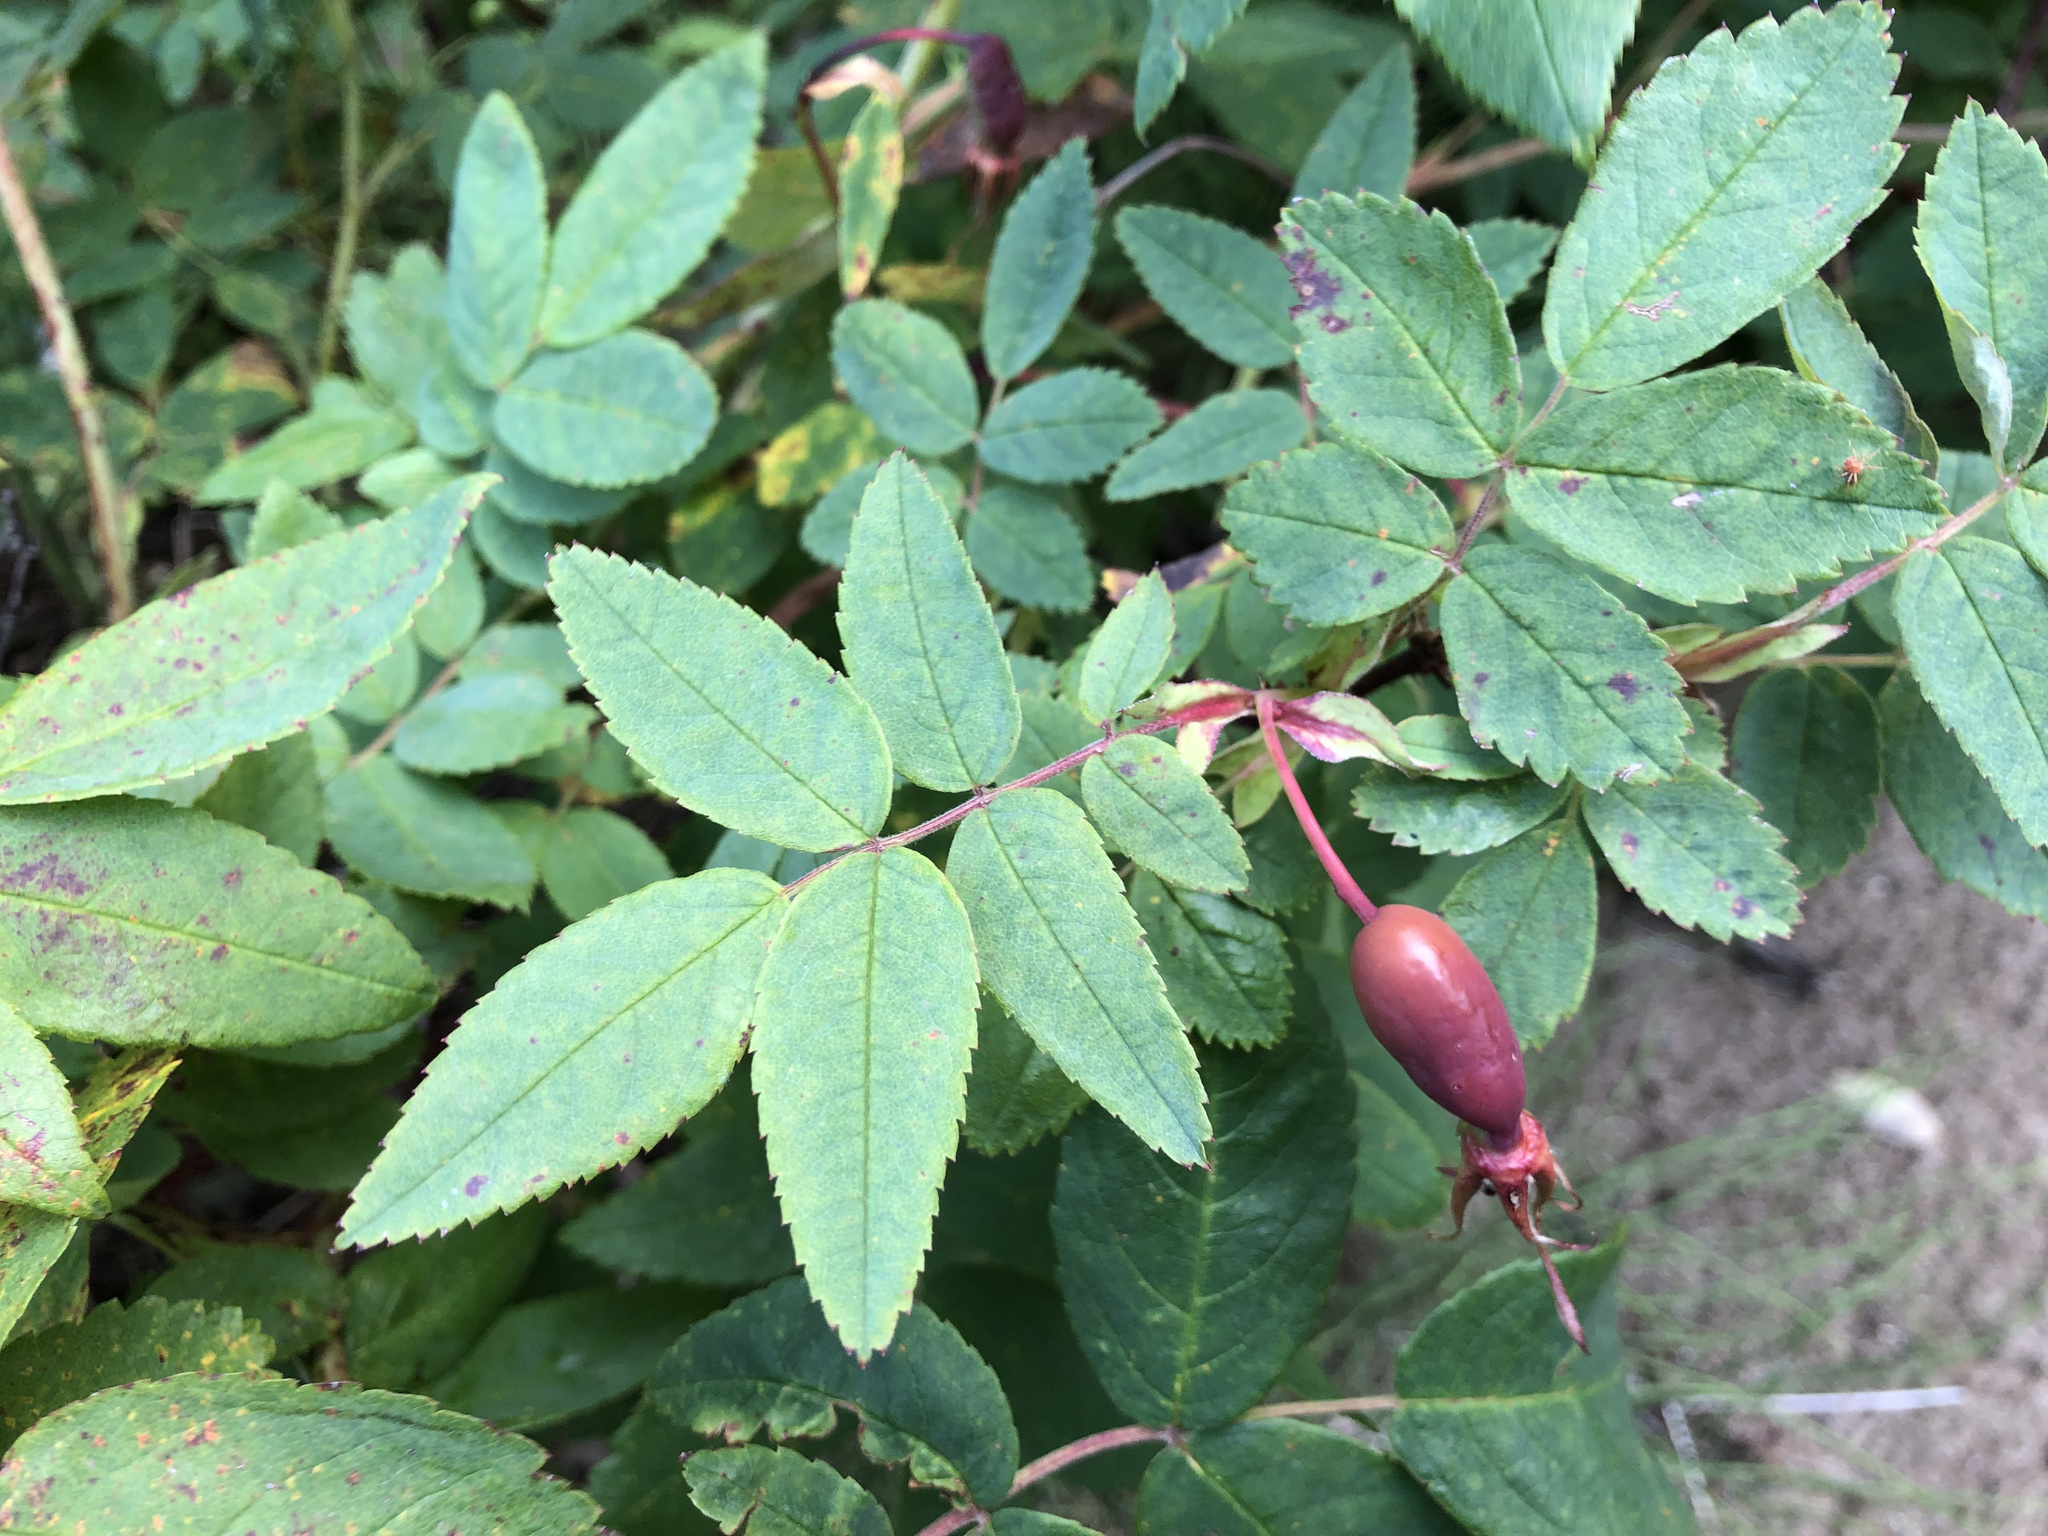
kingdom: Plantae
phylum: Tracheophyta
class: Magnoliopsida
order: Rosales
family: Rosaceae
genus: Rosa
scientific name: Rosa acicularis
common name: Prickly rose
